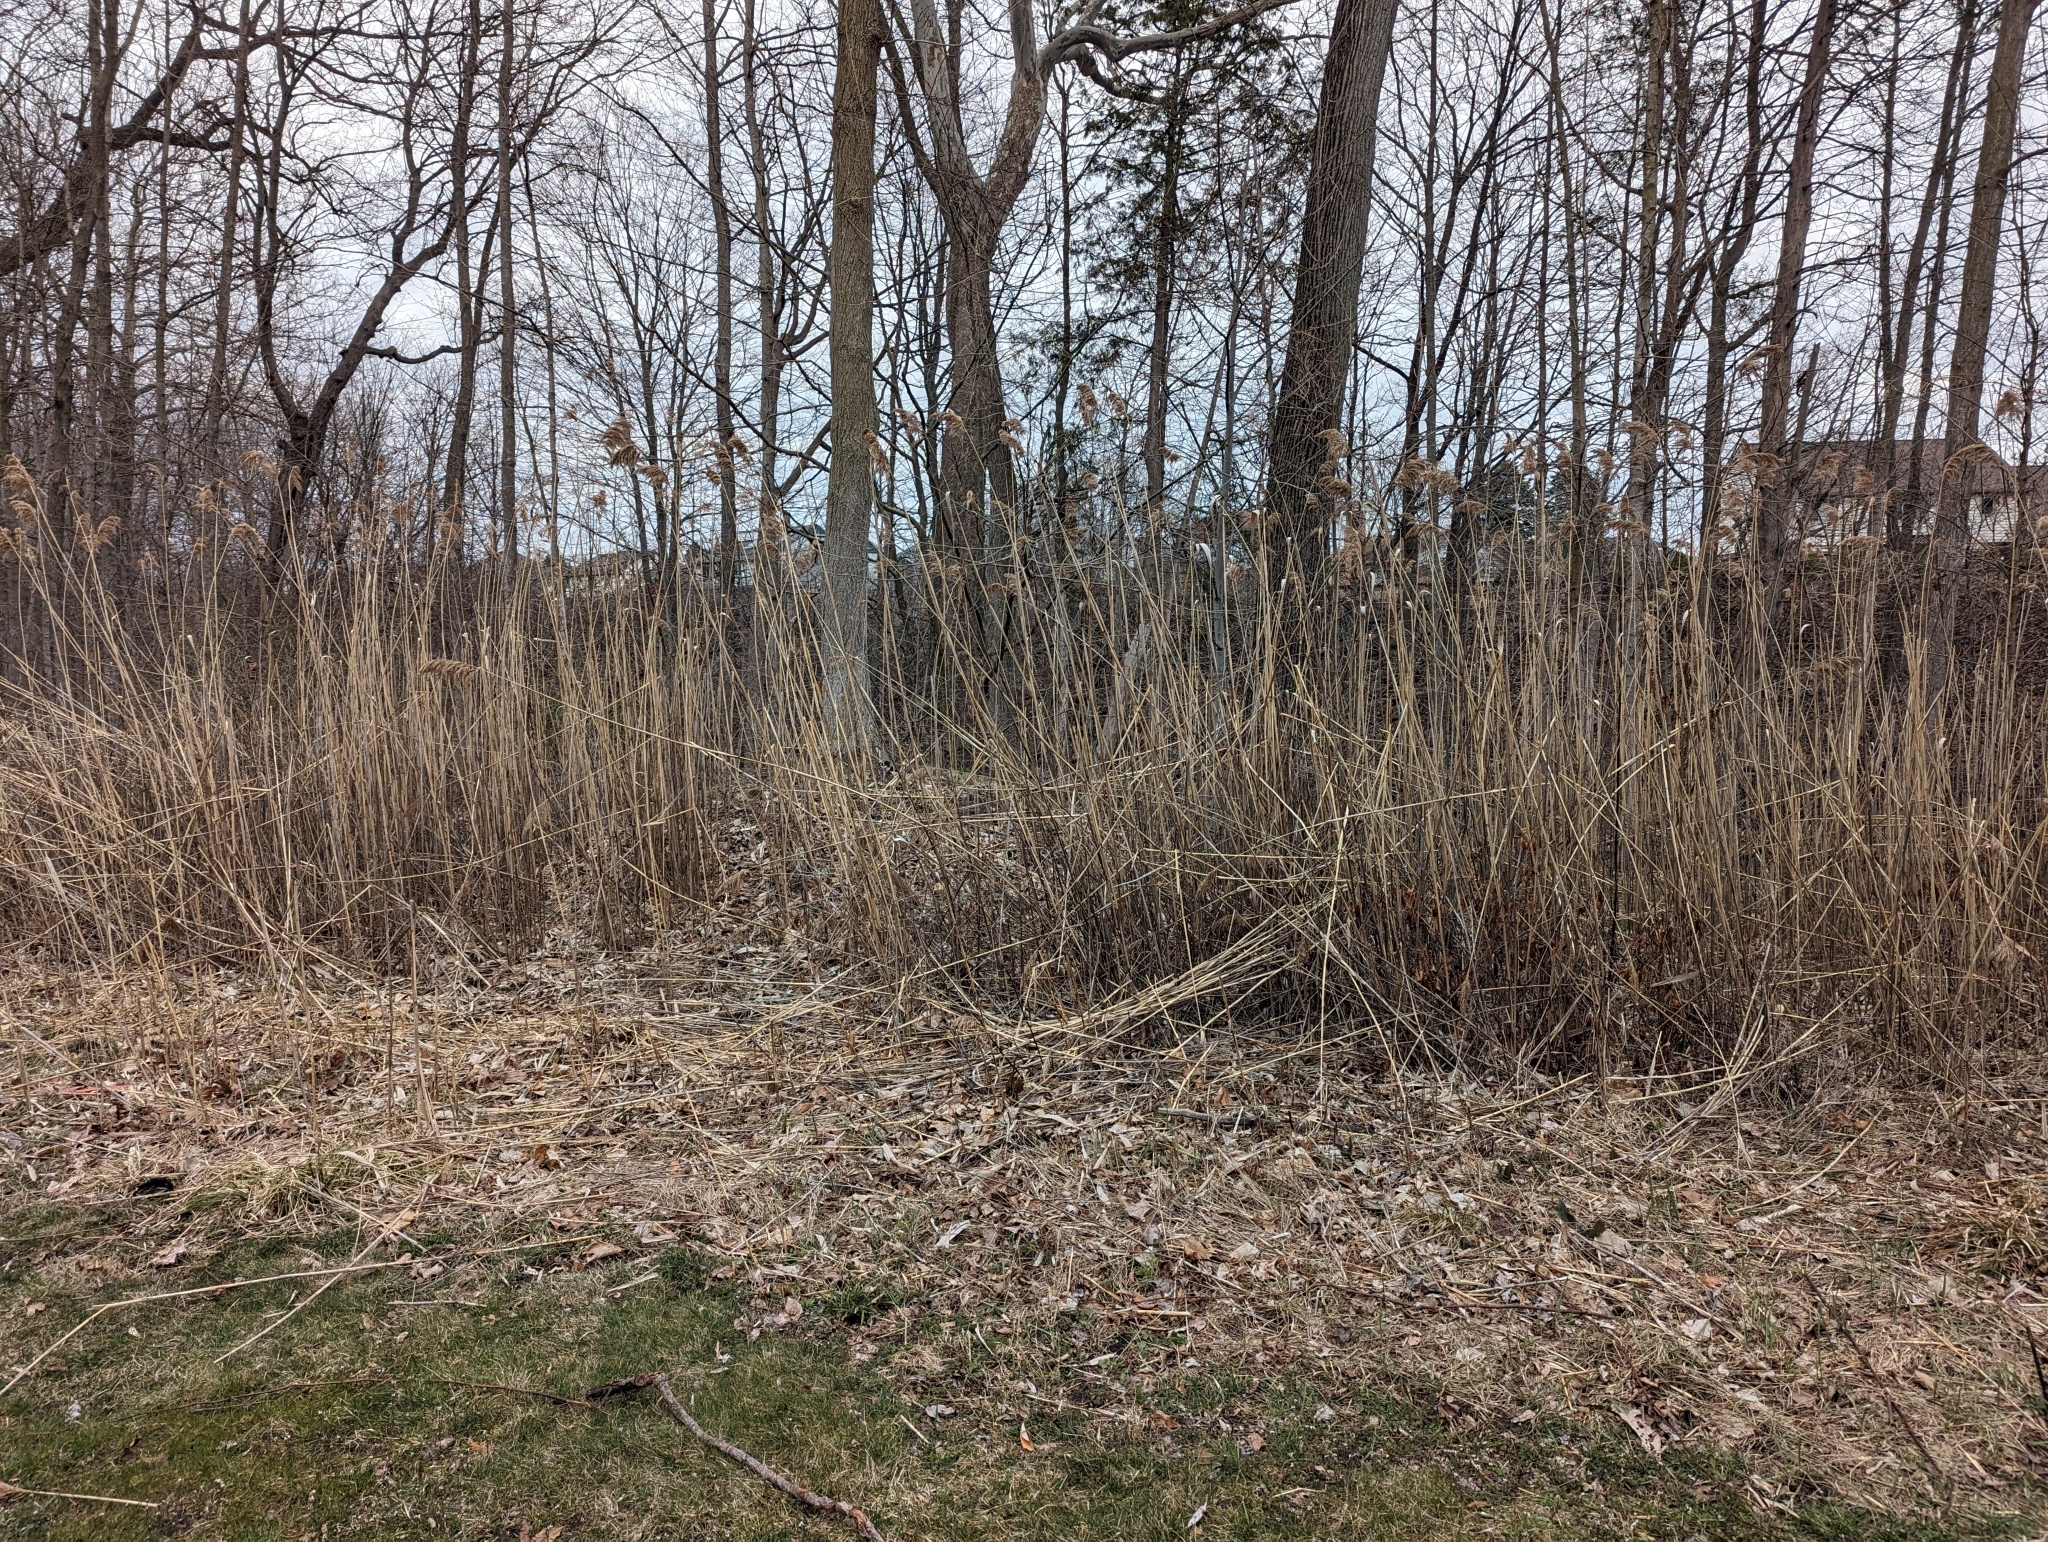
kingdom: Plantae
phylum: Tracheophyta
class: Liliopsida
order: Poales
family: Poaceae
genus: Phragmites
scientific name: Phragmites australis
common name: Common reed
